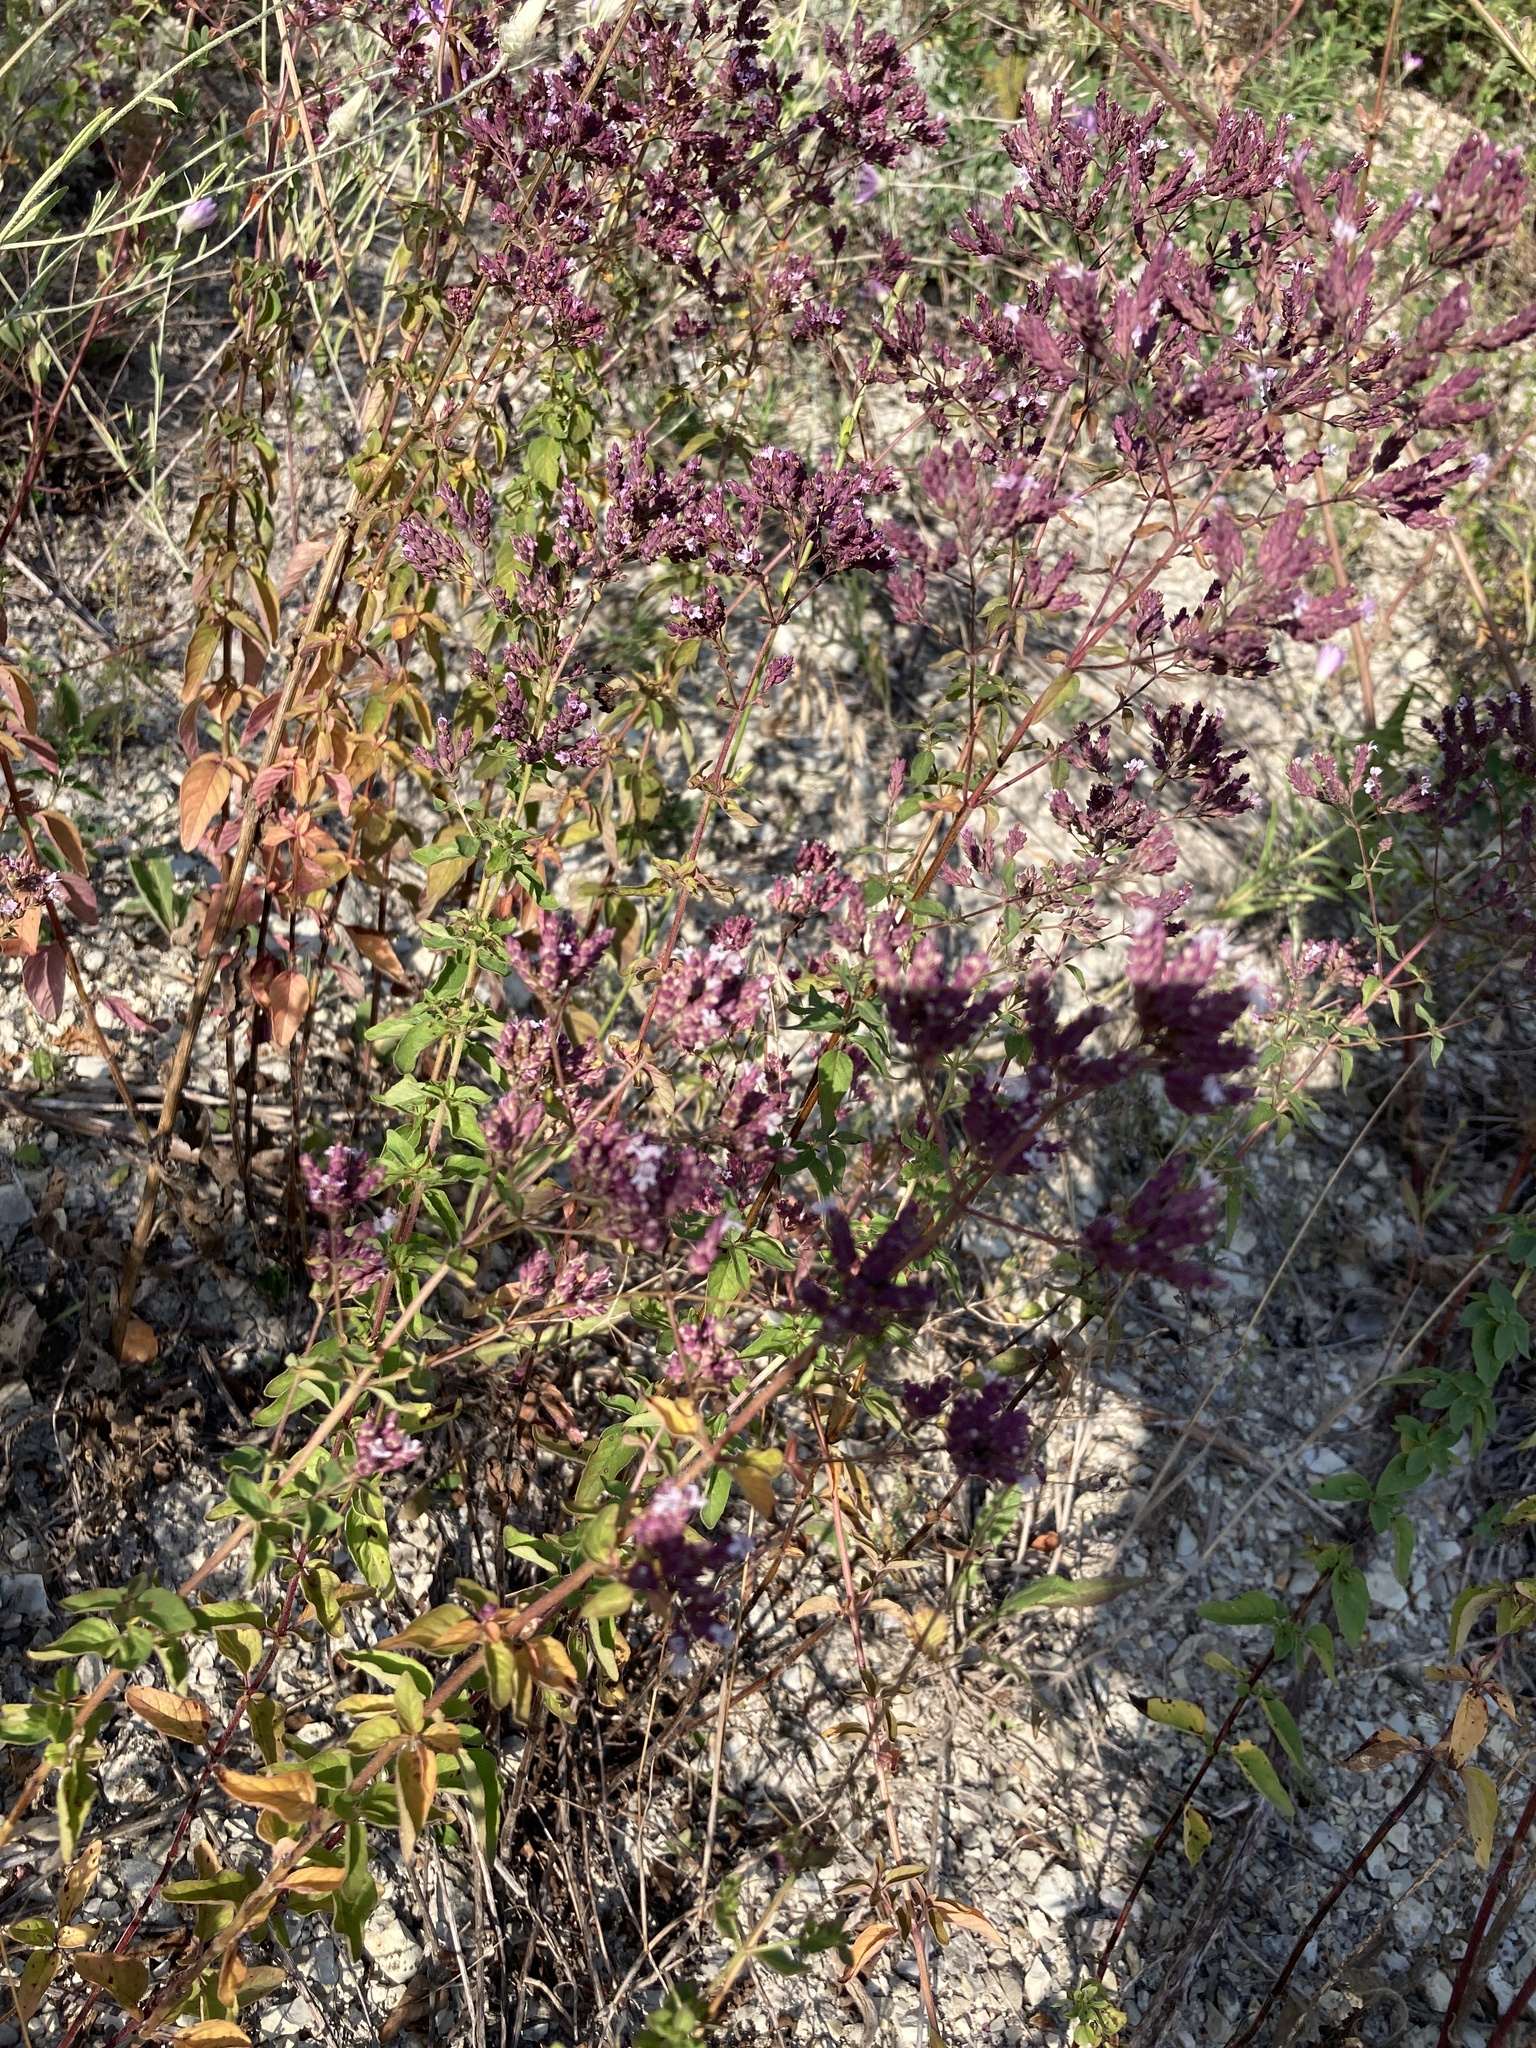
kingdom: Plantae
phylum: Tracheophyta
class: Magnoliopsida
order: Lamiales
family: Lamiaceae
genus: Origanum
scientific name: Origanum vulgare
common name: Wild marjoram
